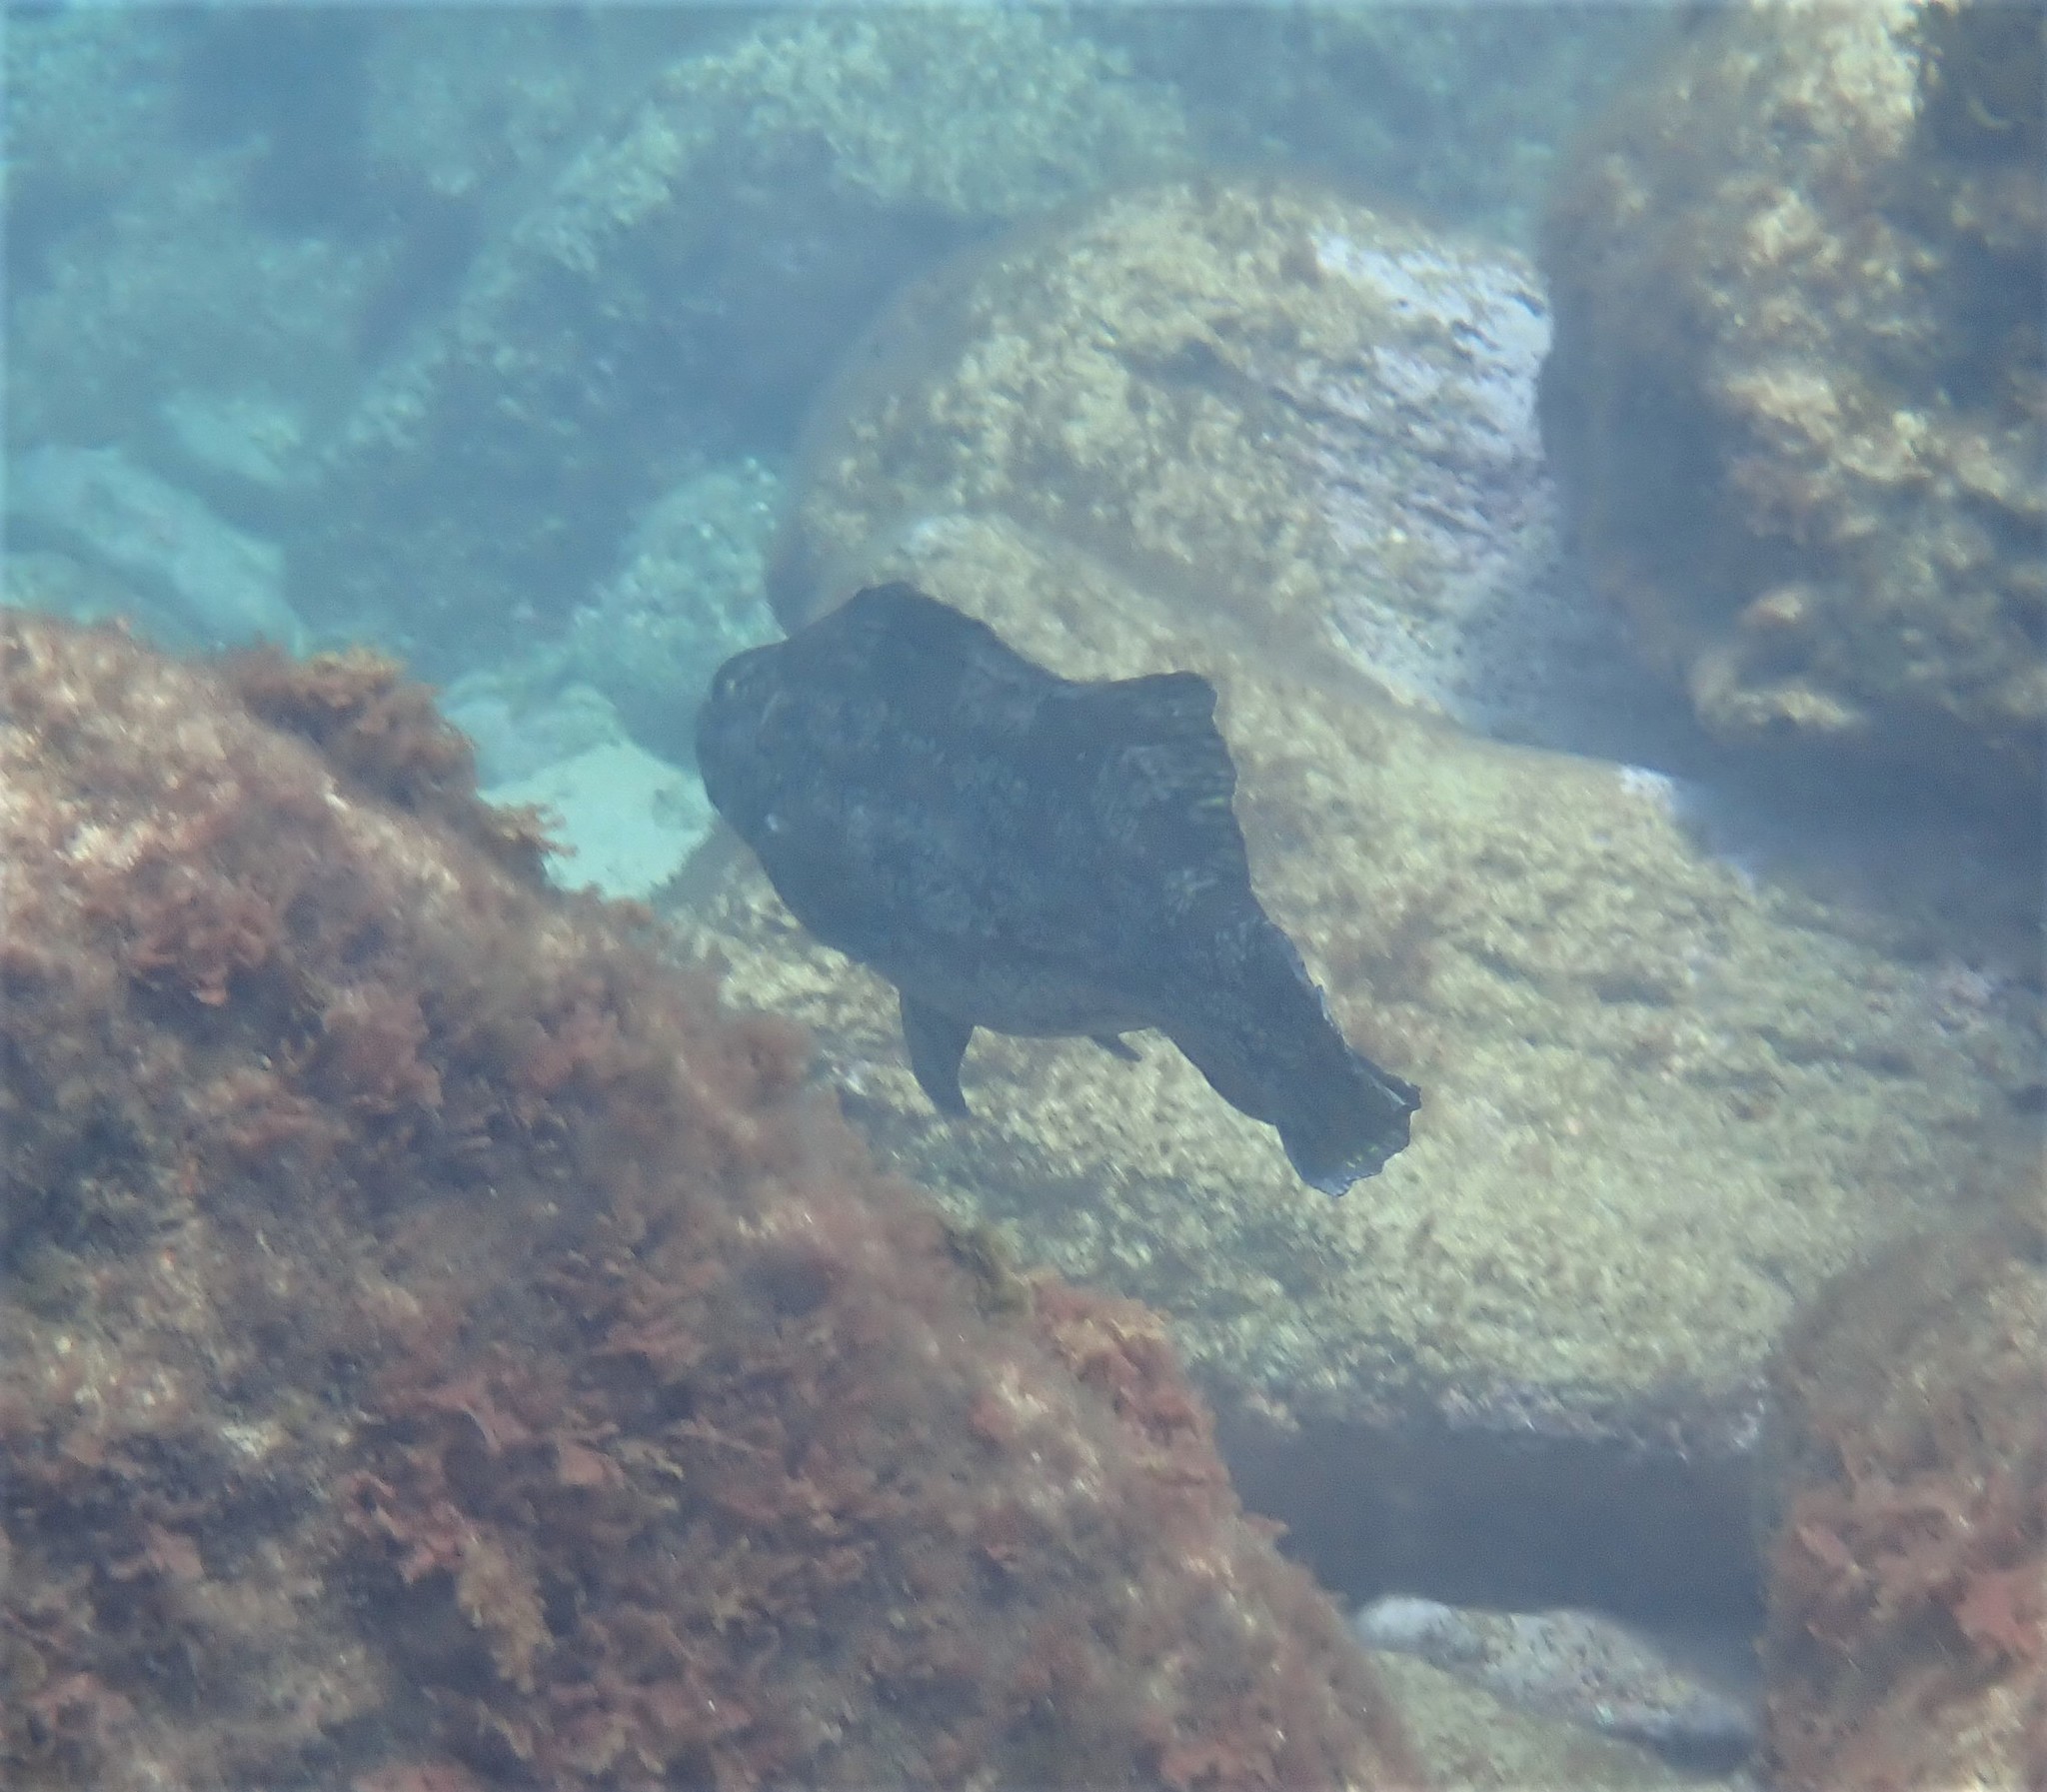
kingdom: Animalia
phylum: Chordata
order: Perciformes
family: Aplodactylidae
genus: Aplodactylus
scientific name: Aplodactylus arctidens
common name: Marblefish
